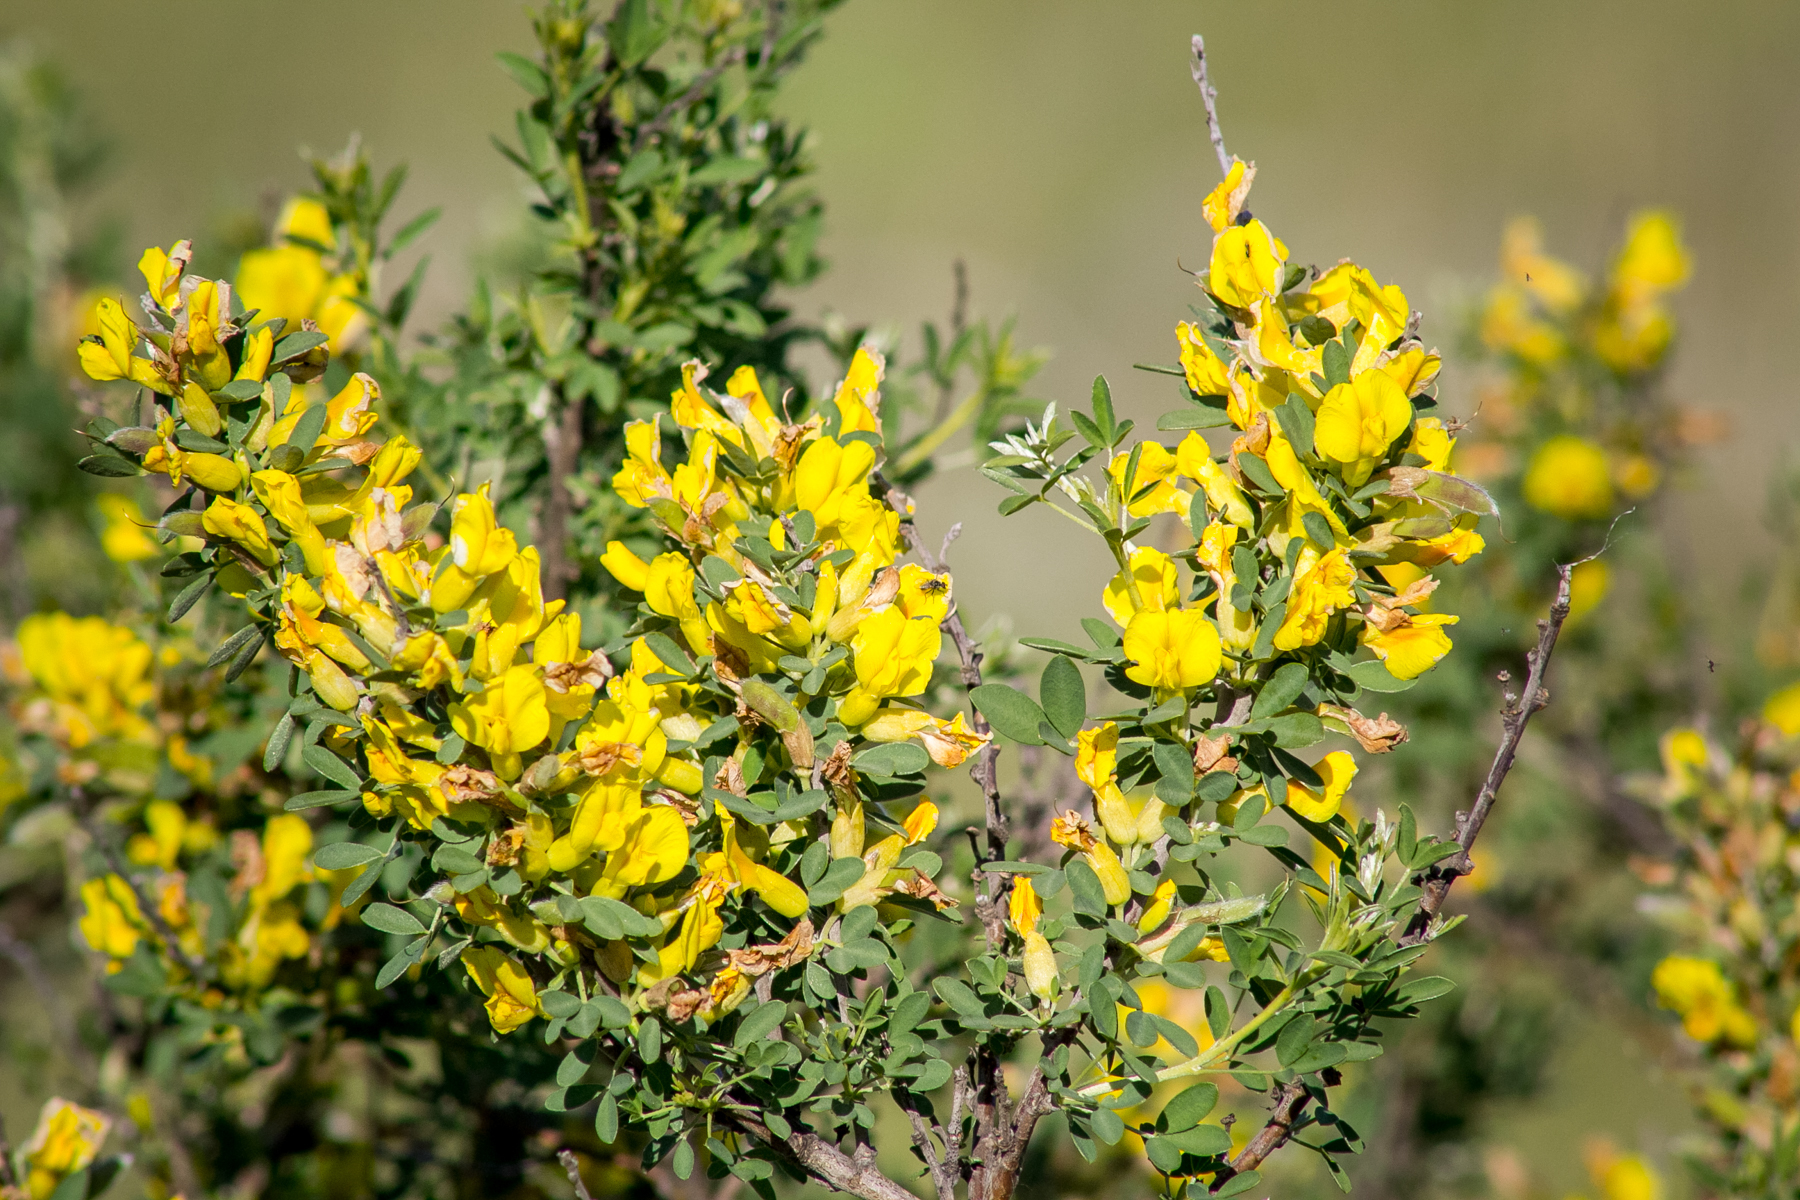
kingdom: Plantae
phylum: Tracheophyta
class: Magnoliopsida
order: Fabales
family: Fabaceae
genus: Chamaecytisus
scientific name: Chamaecytisus ruthenicus
